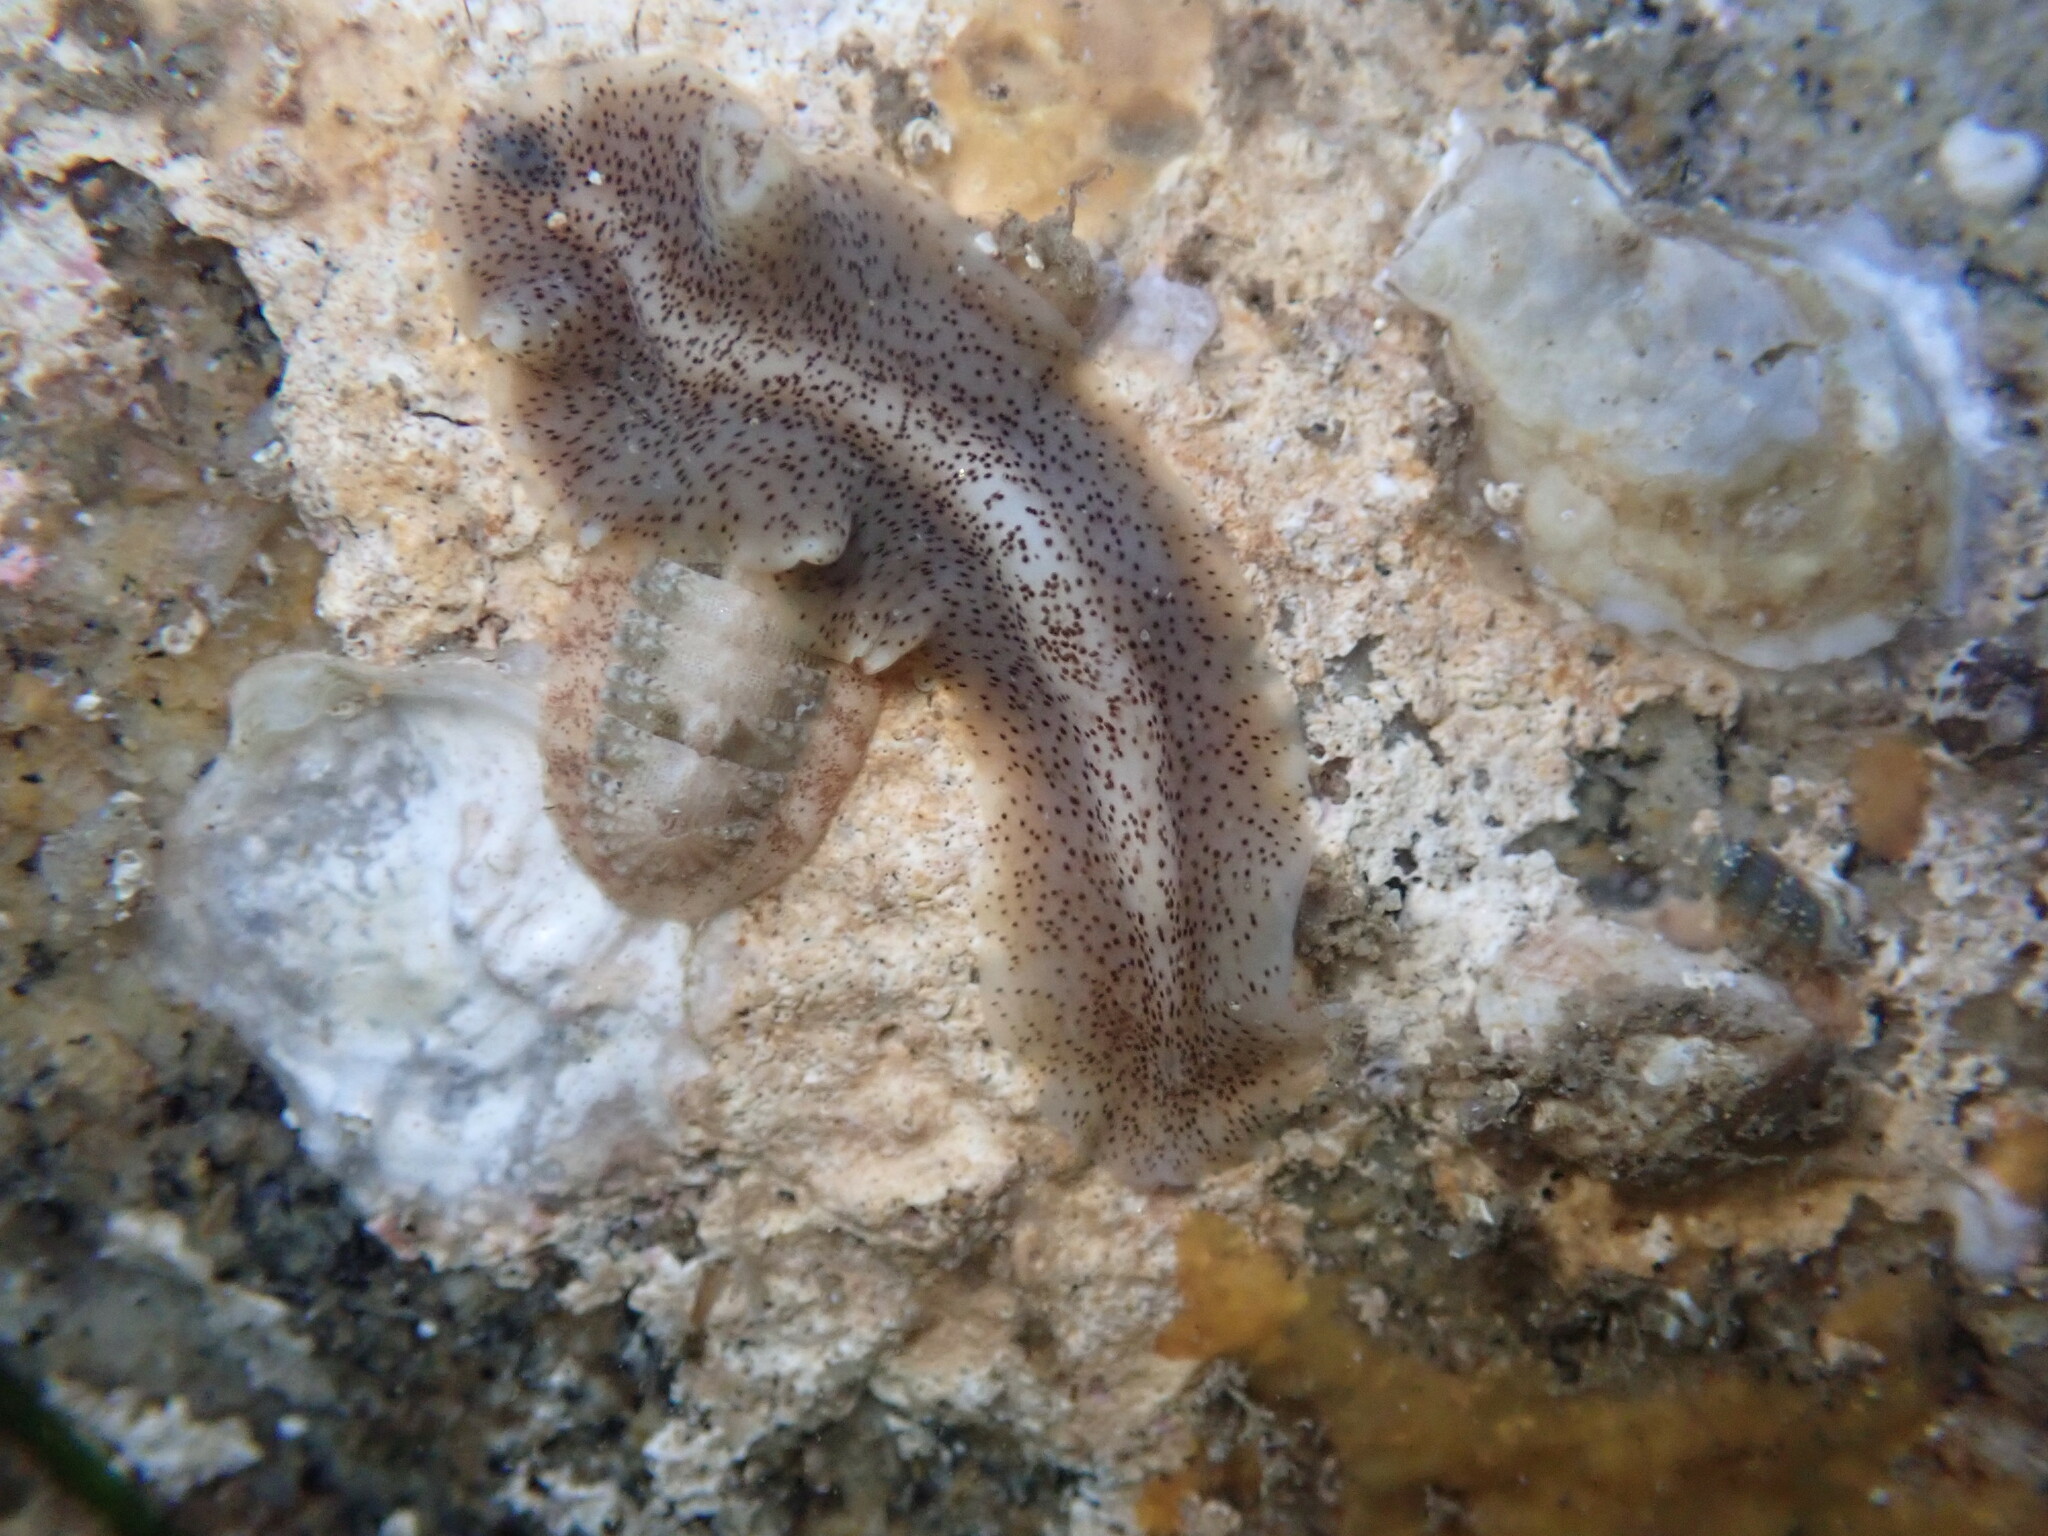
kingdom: Animalia
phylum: Platyhelminthes
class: Turbellaria
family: Prosthiostomidae
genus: Enchiridium
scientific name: Enchiridium punctatum
